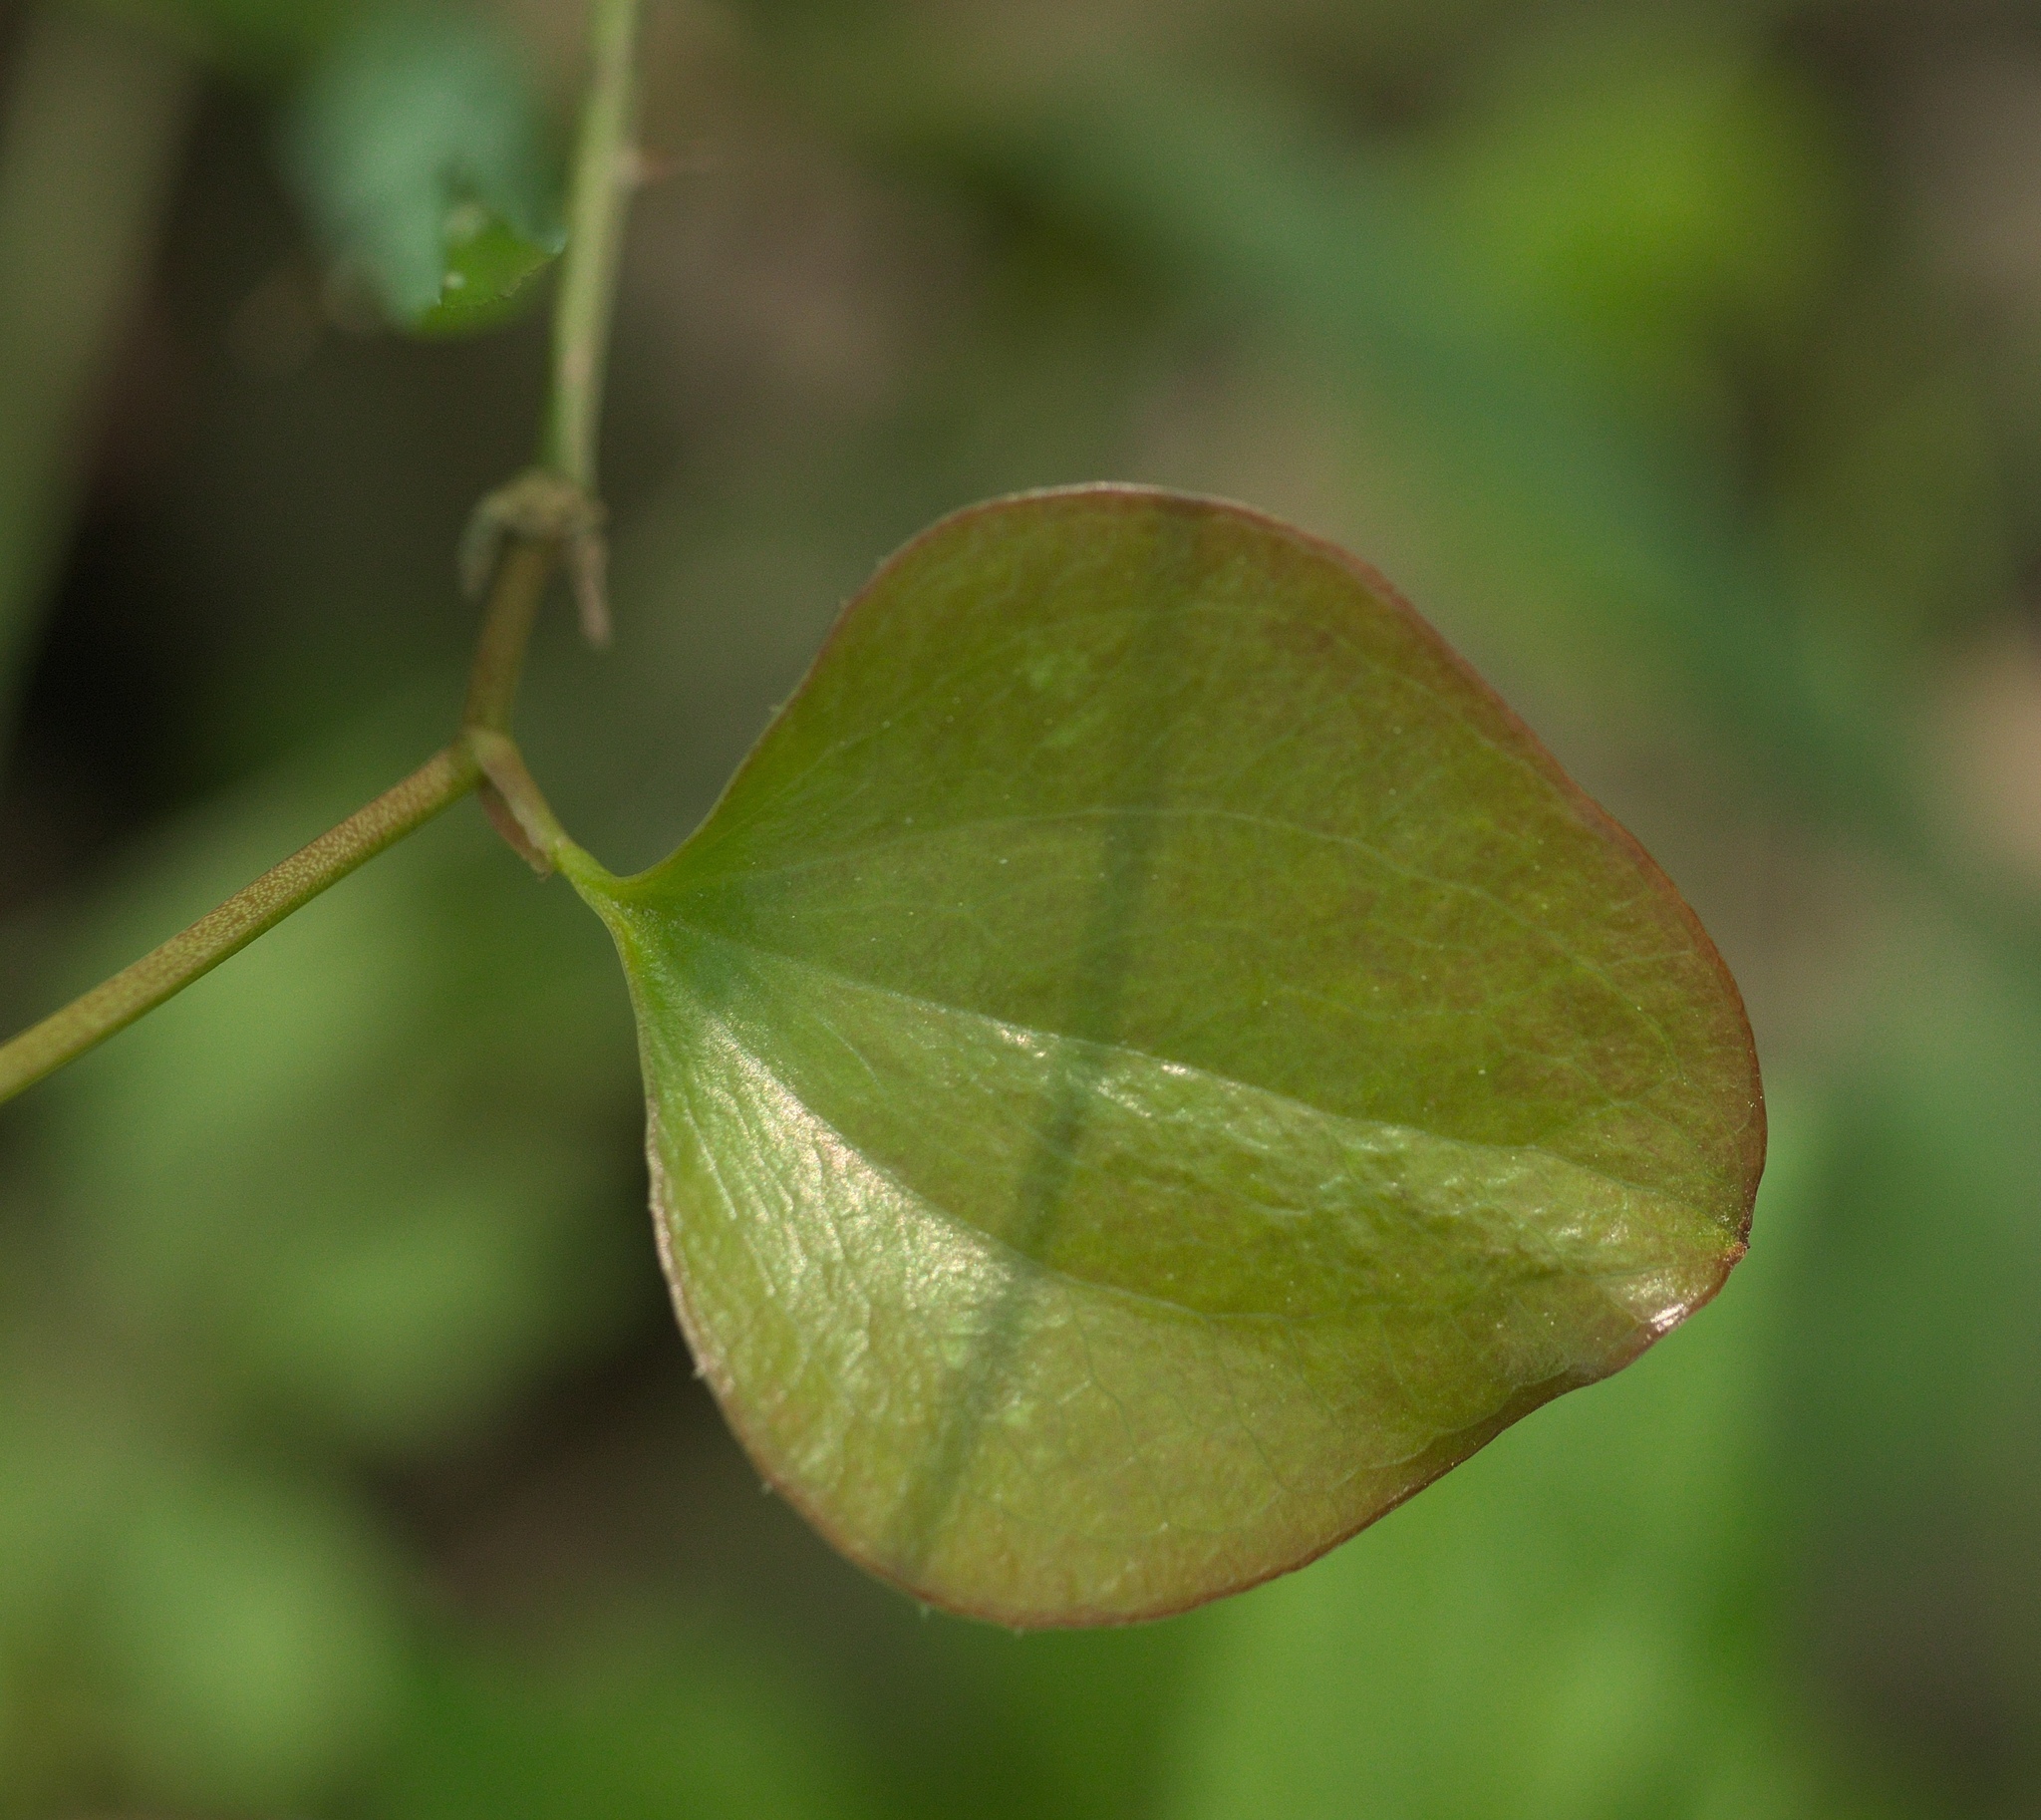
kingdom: Plantae
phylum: Tracheophyta
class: Liliopsida
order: Liliales
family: Smilacaceae
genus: Smilax
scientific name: Smilax bona-nox
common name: Catbrier
